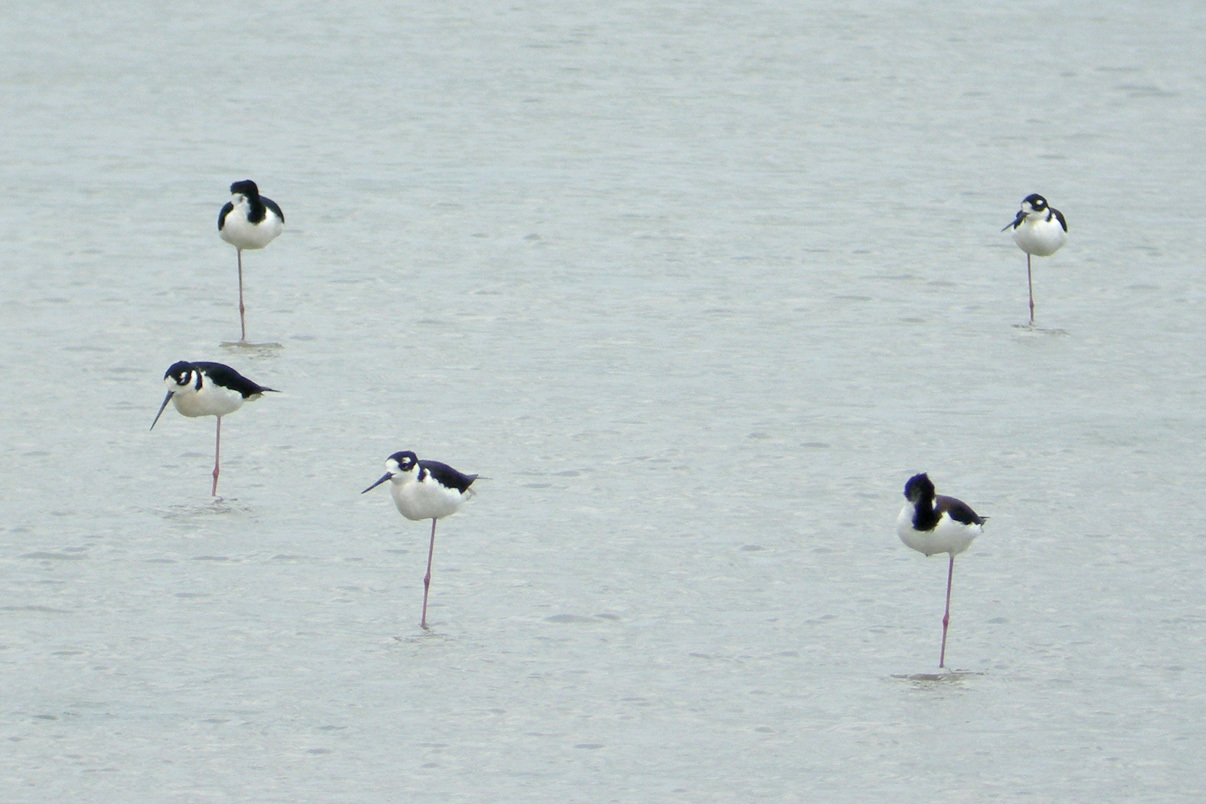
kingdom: Animalia
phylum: Chordata
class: Aves
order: Charadriiformes
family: Recurvirostridae
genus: Himantopus
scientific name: Himantopus mexicanus
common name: Black-necked stilt
